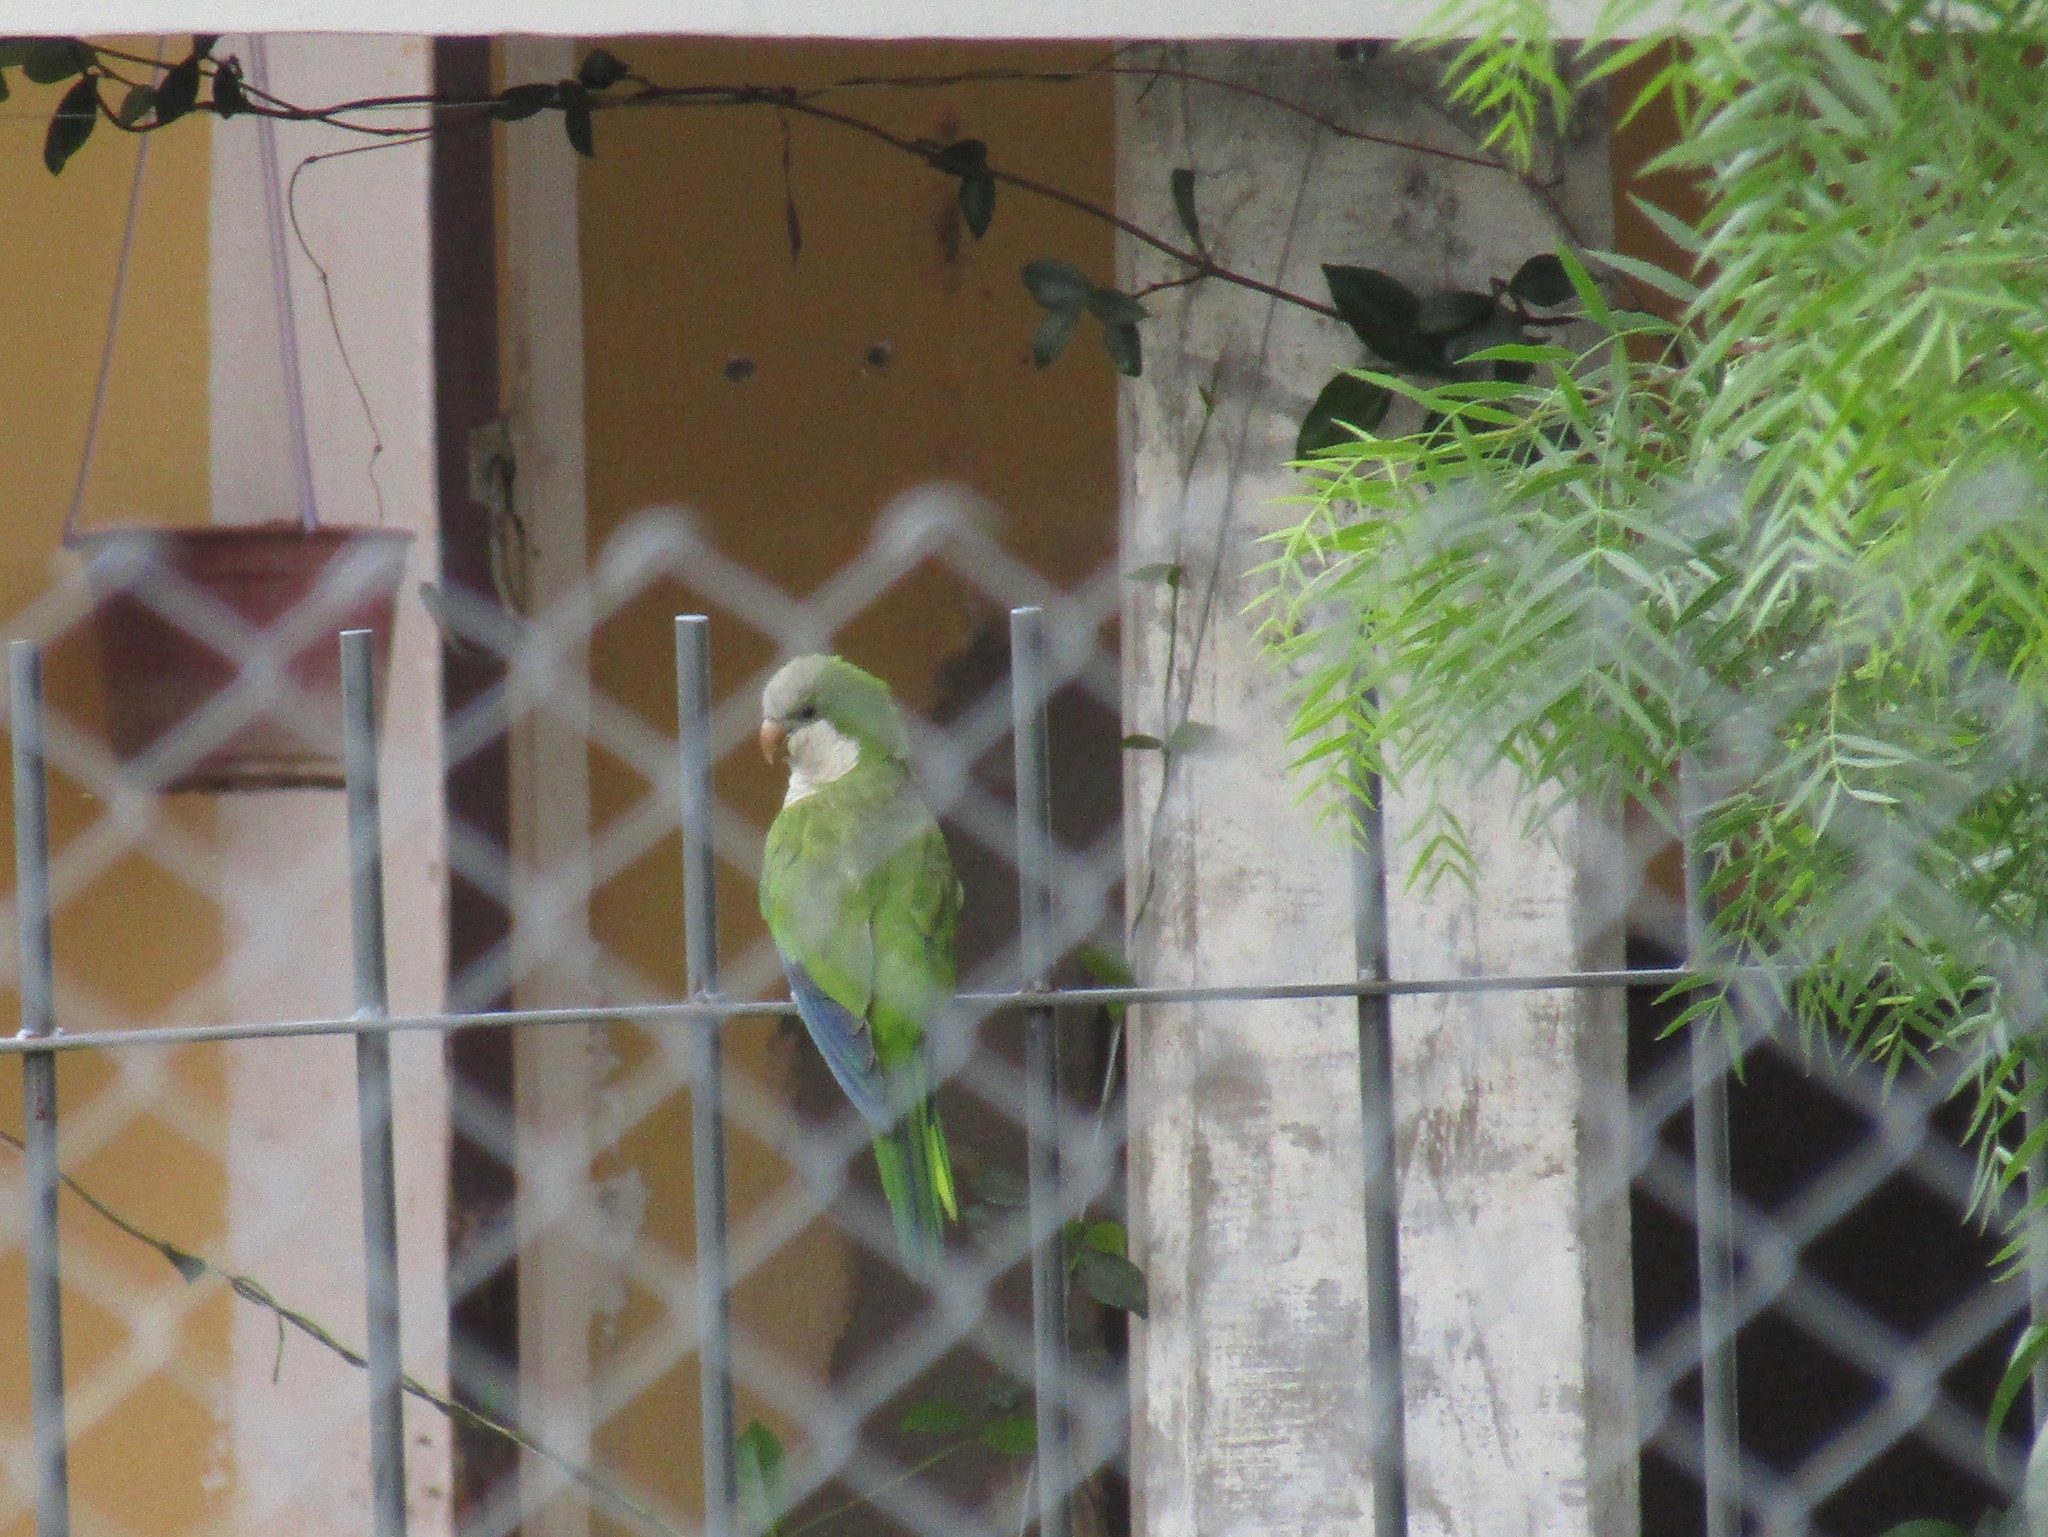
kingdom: Animalia
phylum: Chordata
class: Aves
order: Psittaciformes
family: Psittacidae
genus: Myiopsitta
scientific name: Myiopsitta monachus
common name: Monk parakeet
